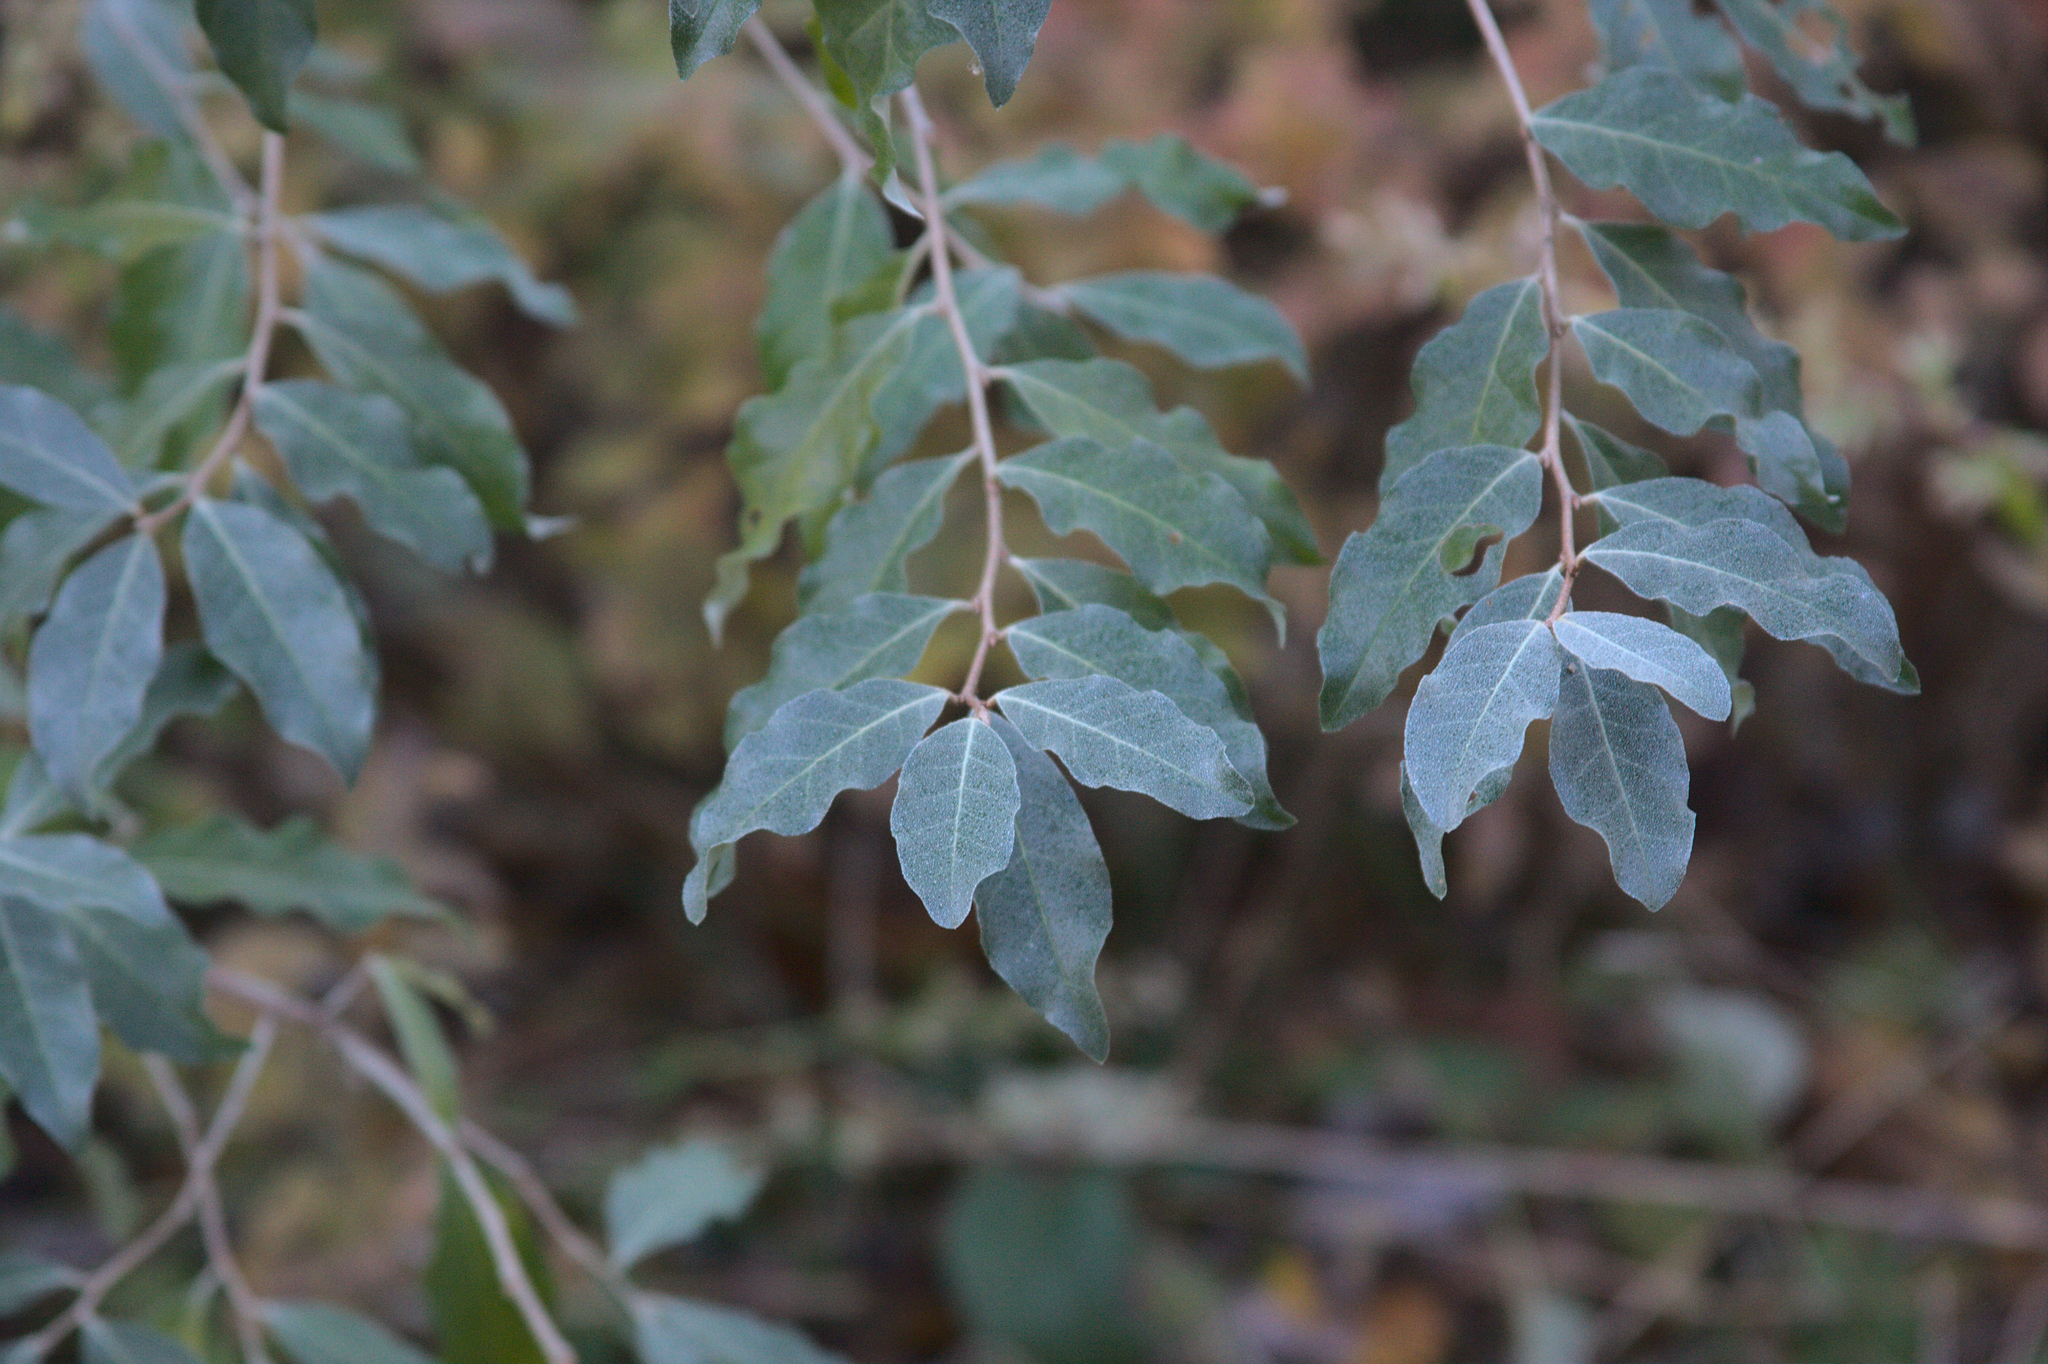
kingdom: Plantae
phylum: Tracheophyta
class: Magnoliopsida
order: Rosales
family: Elaeagnaceae
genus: Elaeagnus
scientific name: Elaeagnus umbellata
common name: Autumn olive
